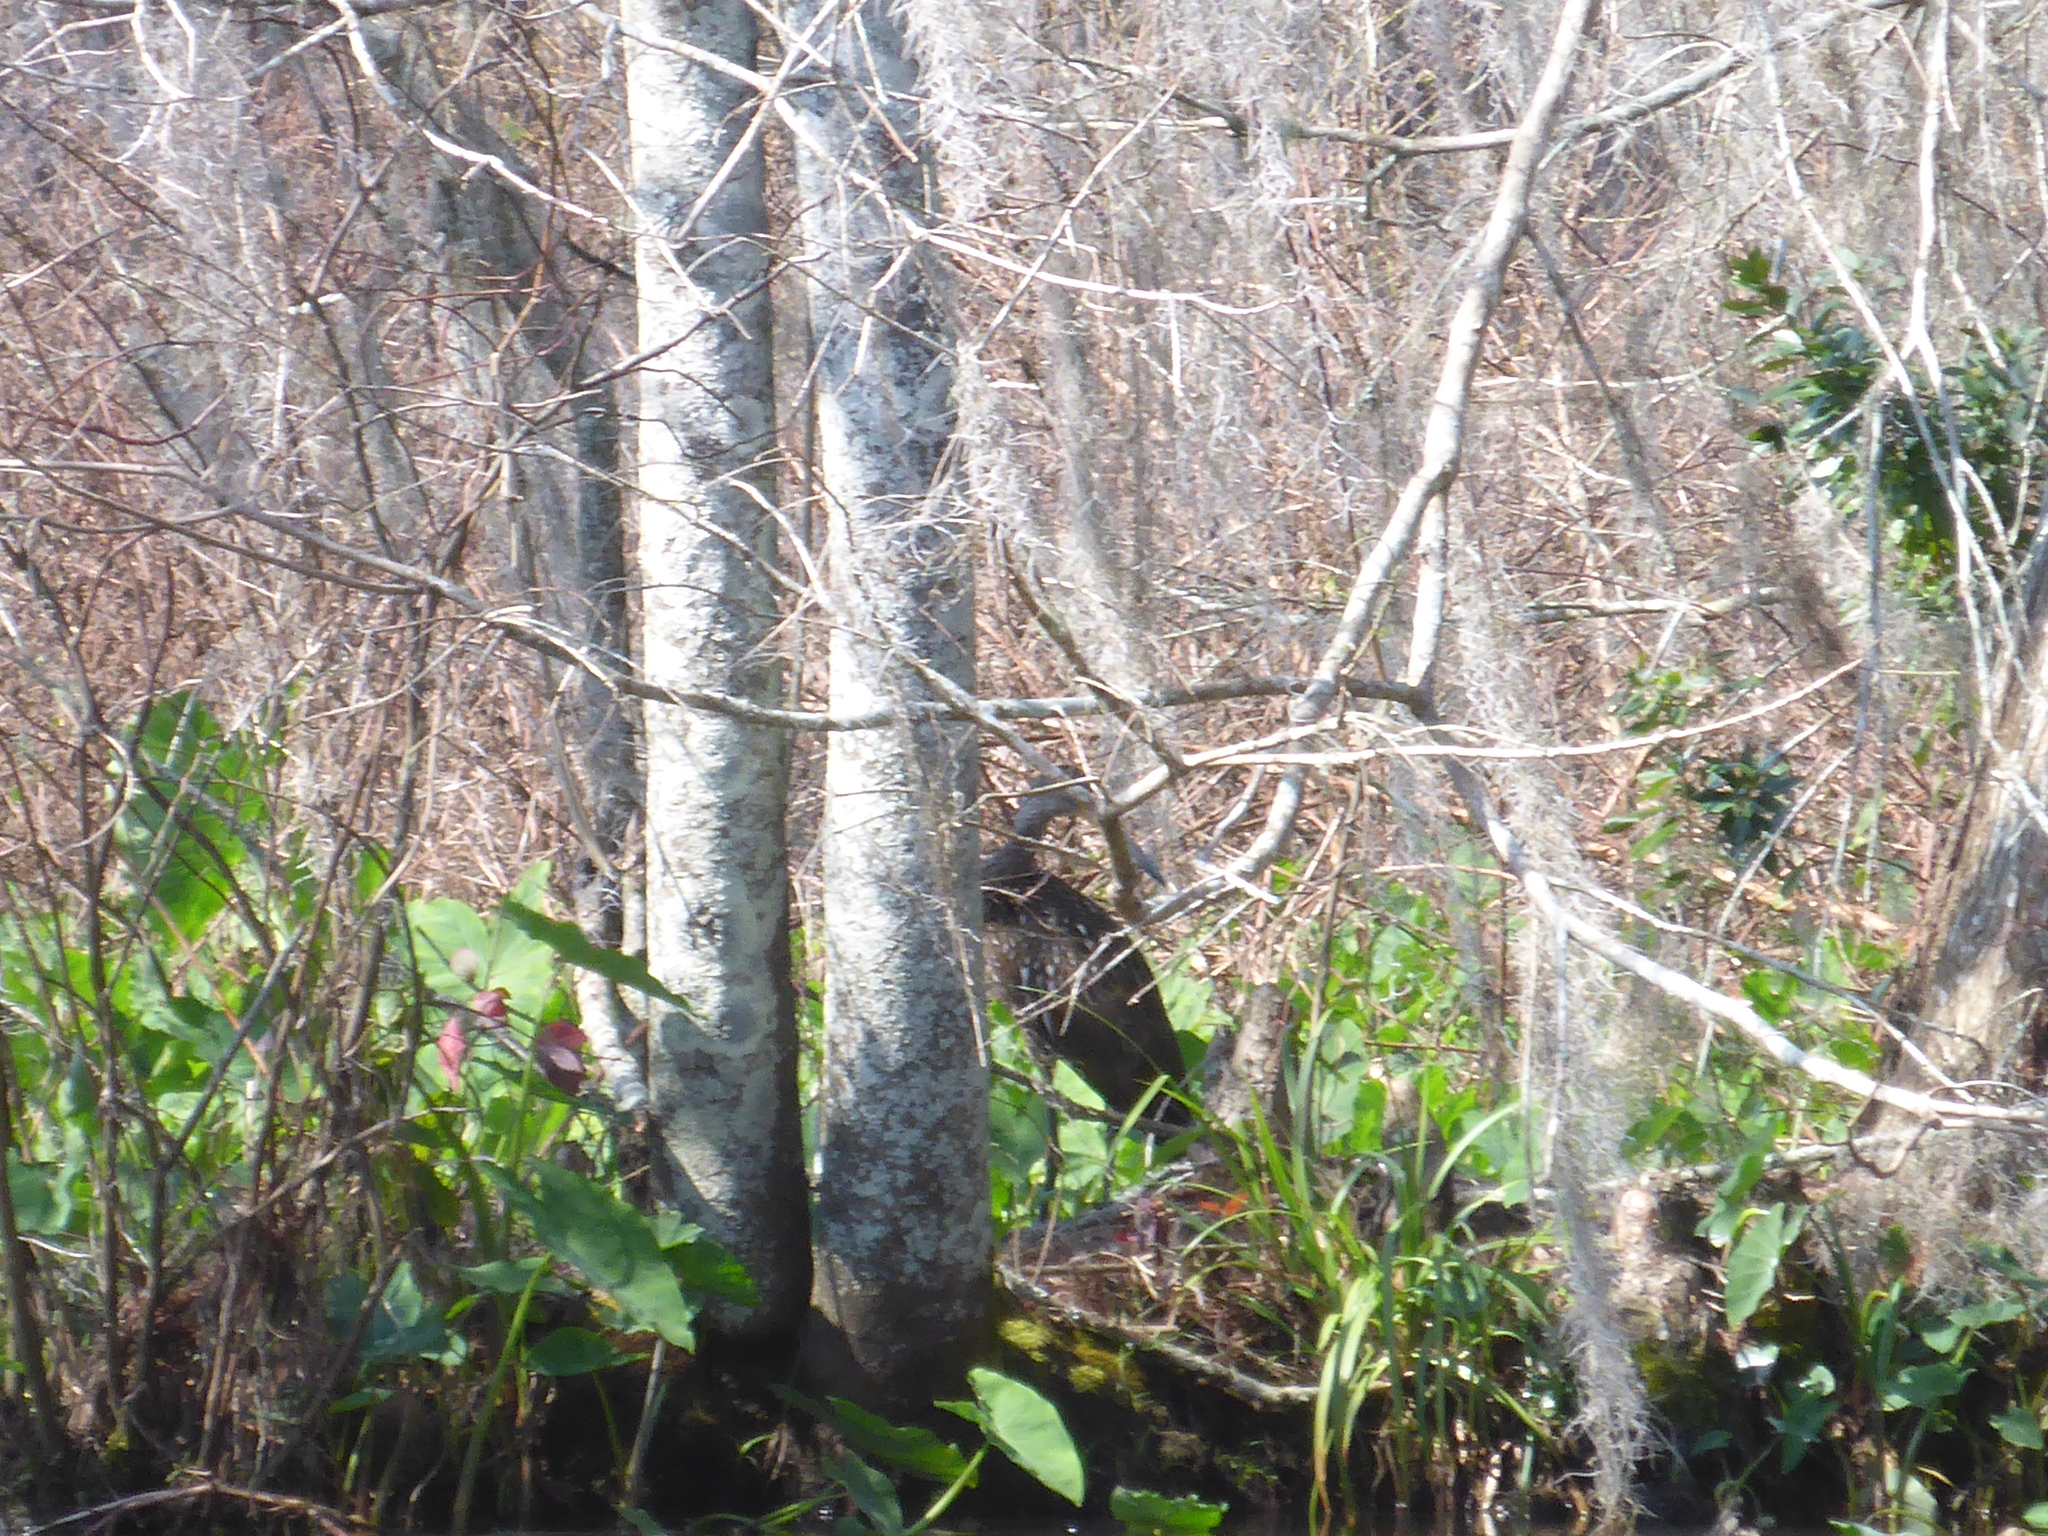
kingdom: Animalia
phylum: Chordata
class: Aves
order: Gruiformes
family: Aramidae
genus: Aramus
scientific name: Aramus guarauna
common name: Limpkin
